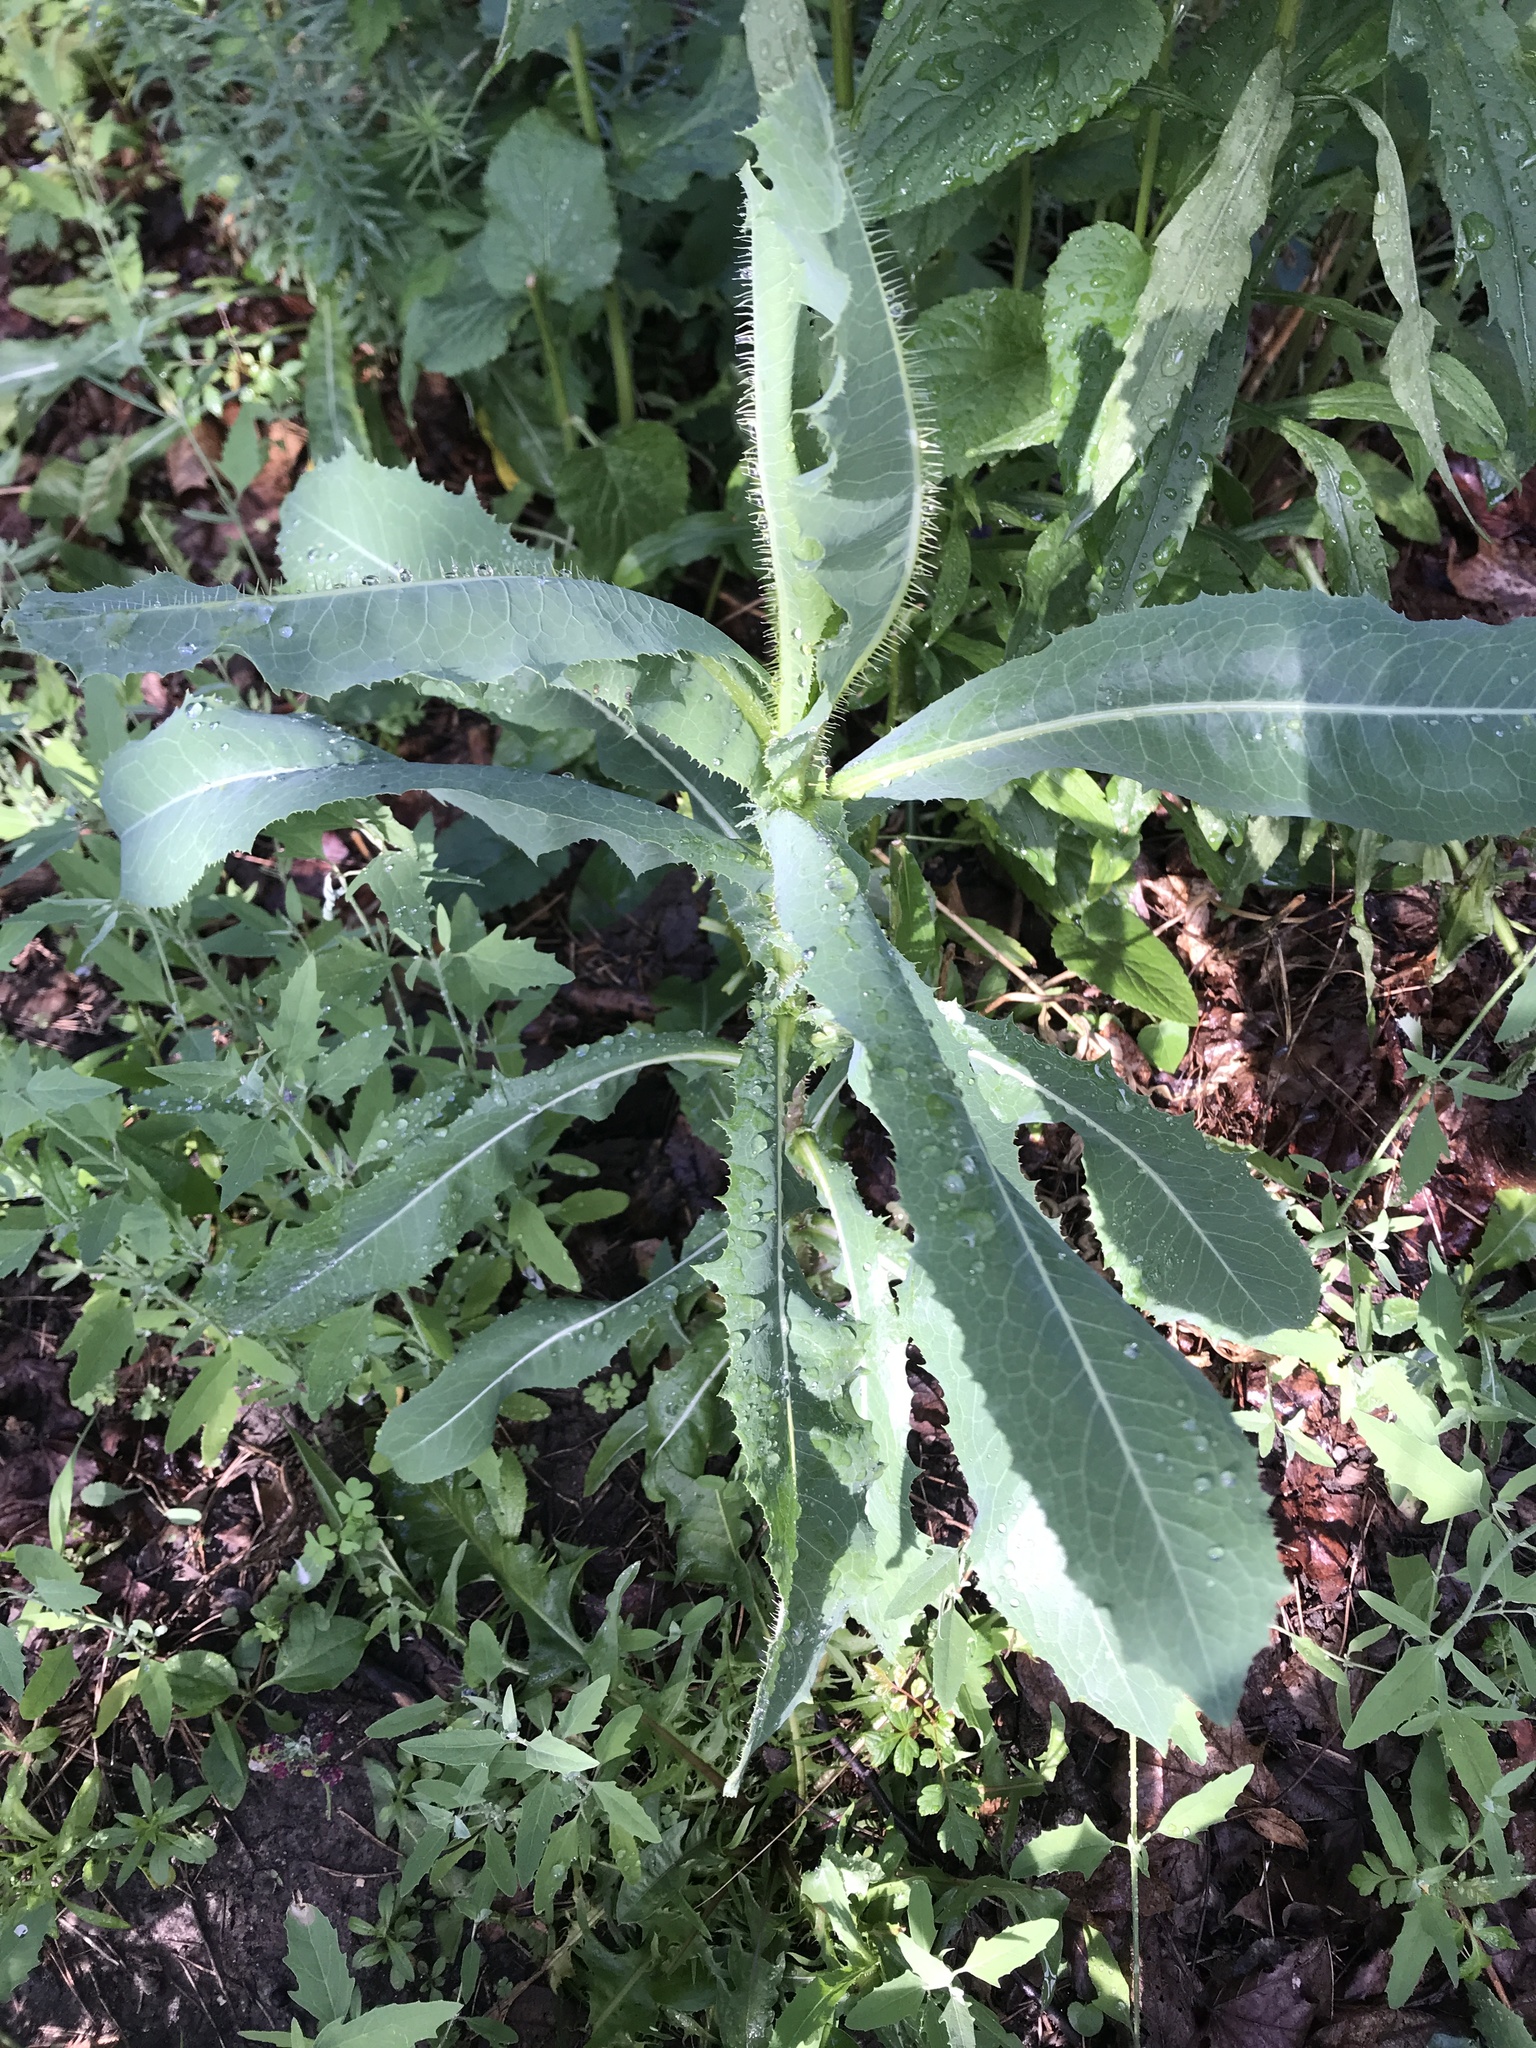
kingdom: Plantae
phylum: Tracheophyta
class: Magnoliopsida
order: Asterales
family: Asteraceae
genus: Lactuca
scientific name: Lactuca serriola
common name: Prickly lettuce
